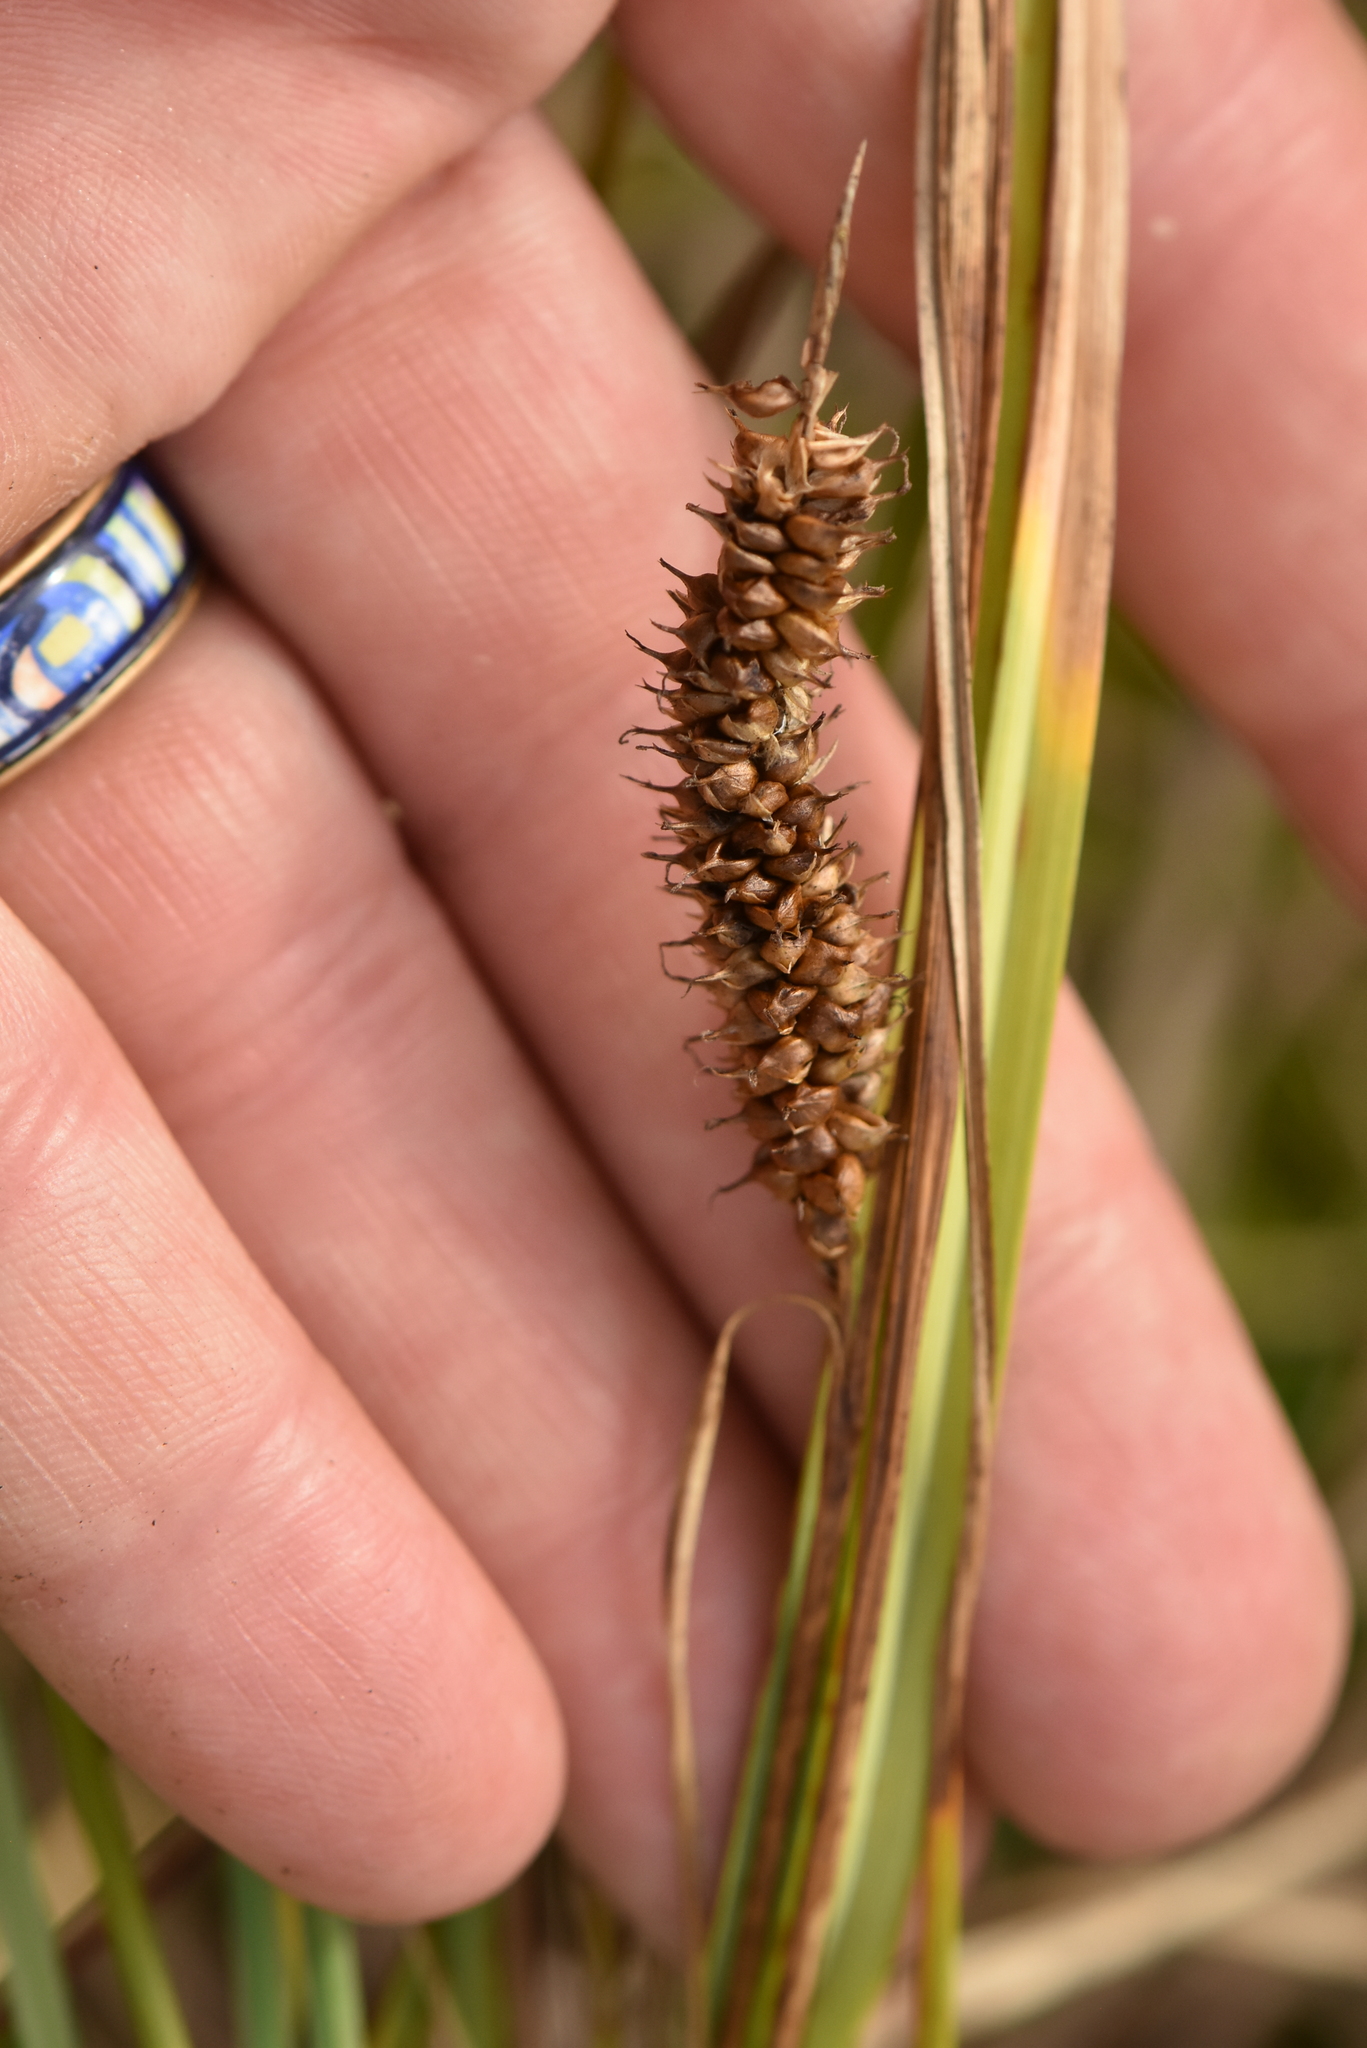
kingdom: Plantae
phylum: Tracheophyta
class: Liliopsida
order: Poales
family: Cyperaceae
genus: Carex
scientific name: Carex rostrata
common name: Bottle sedge
